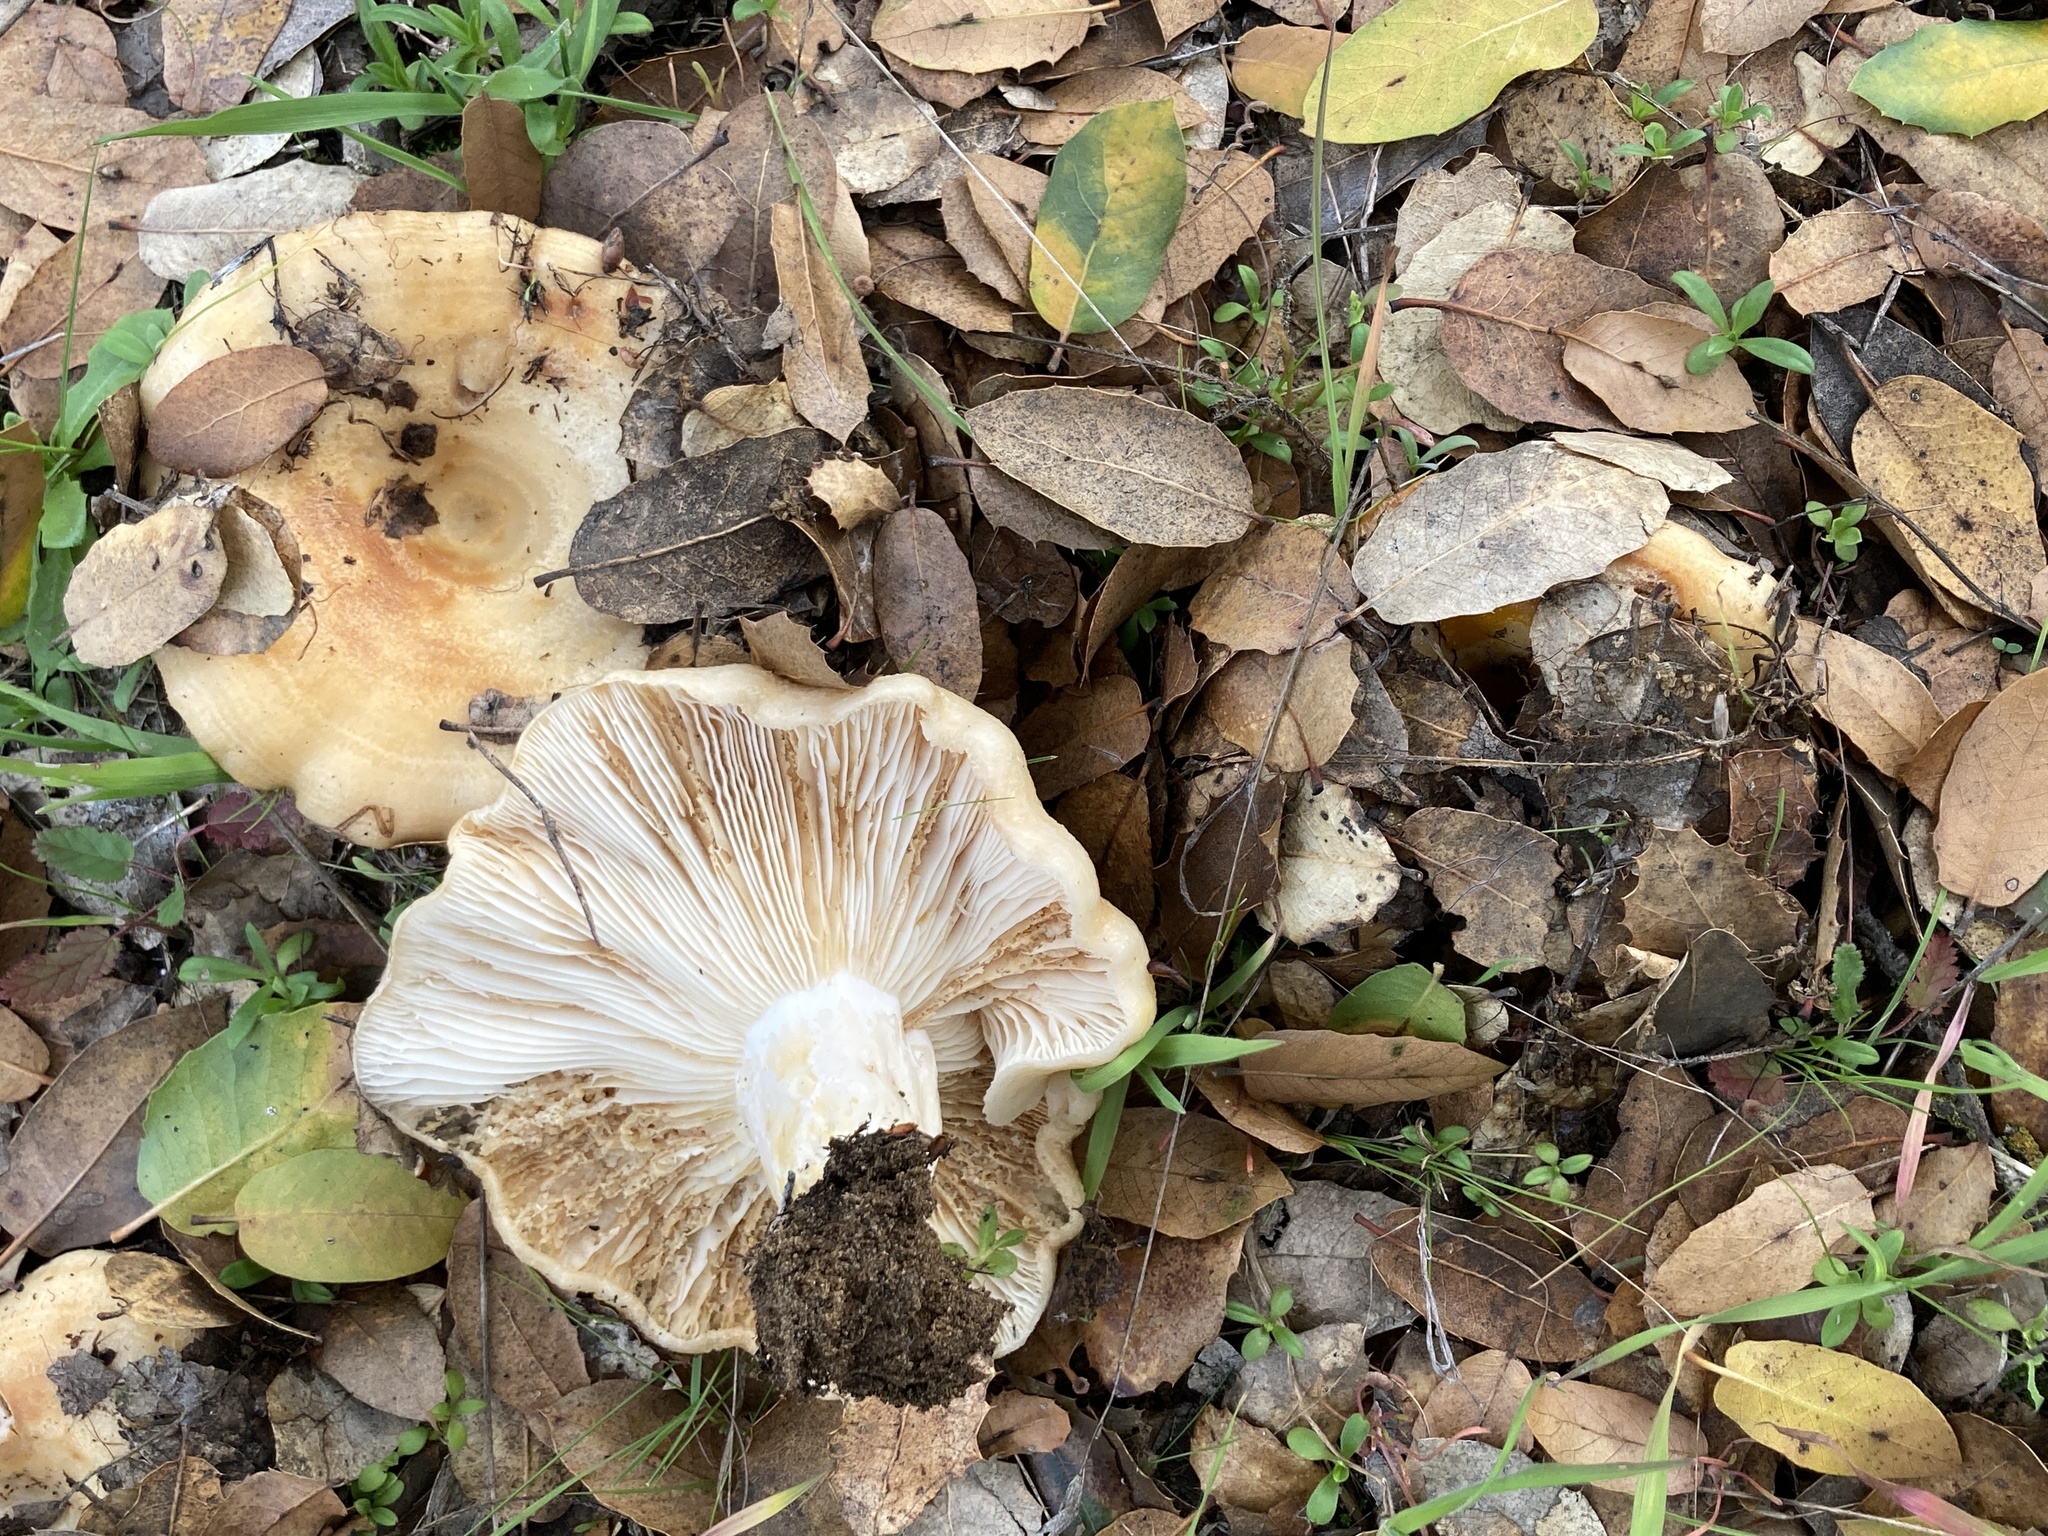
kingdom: Fungi
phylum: Basidiomycota
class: Agaricomycetes
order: Russulales
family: Russulaceae
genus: Lactarius
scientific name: Lactarius alnicola
